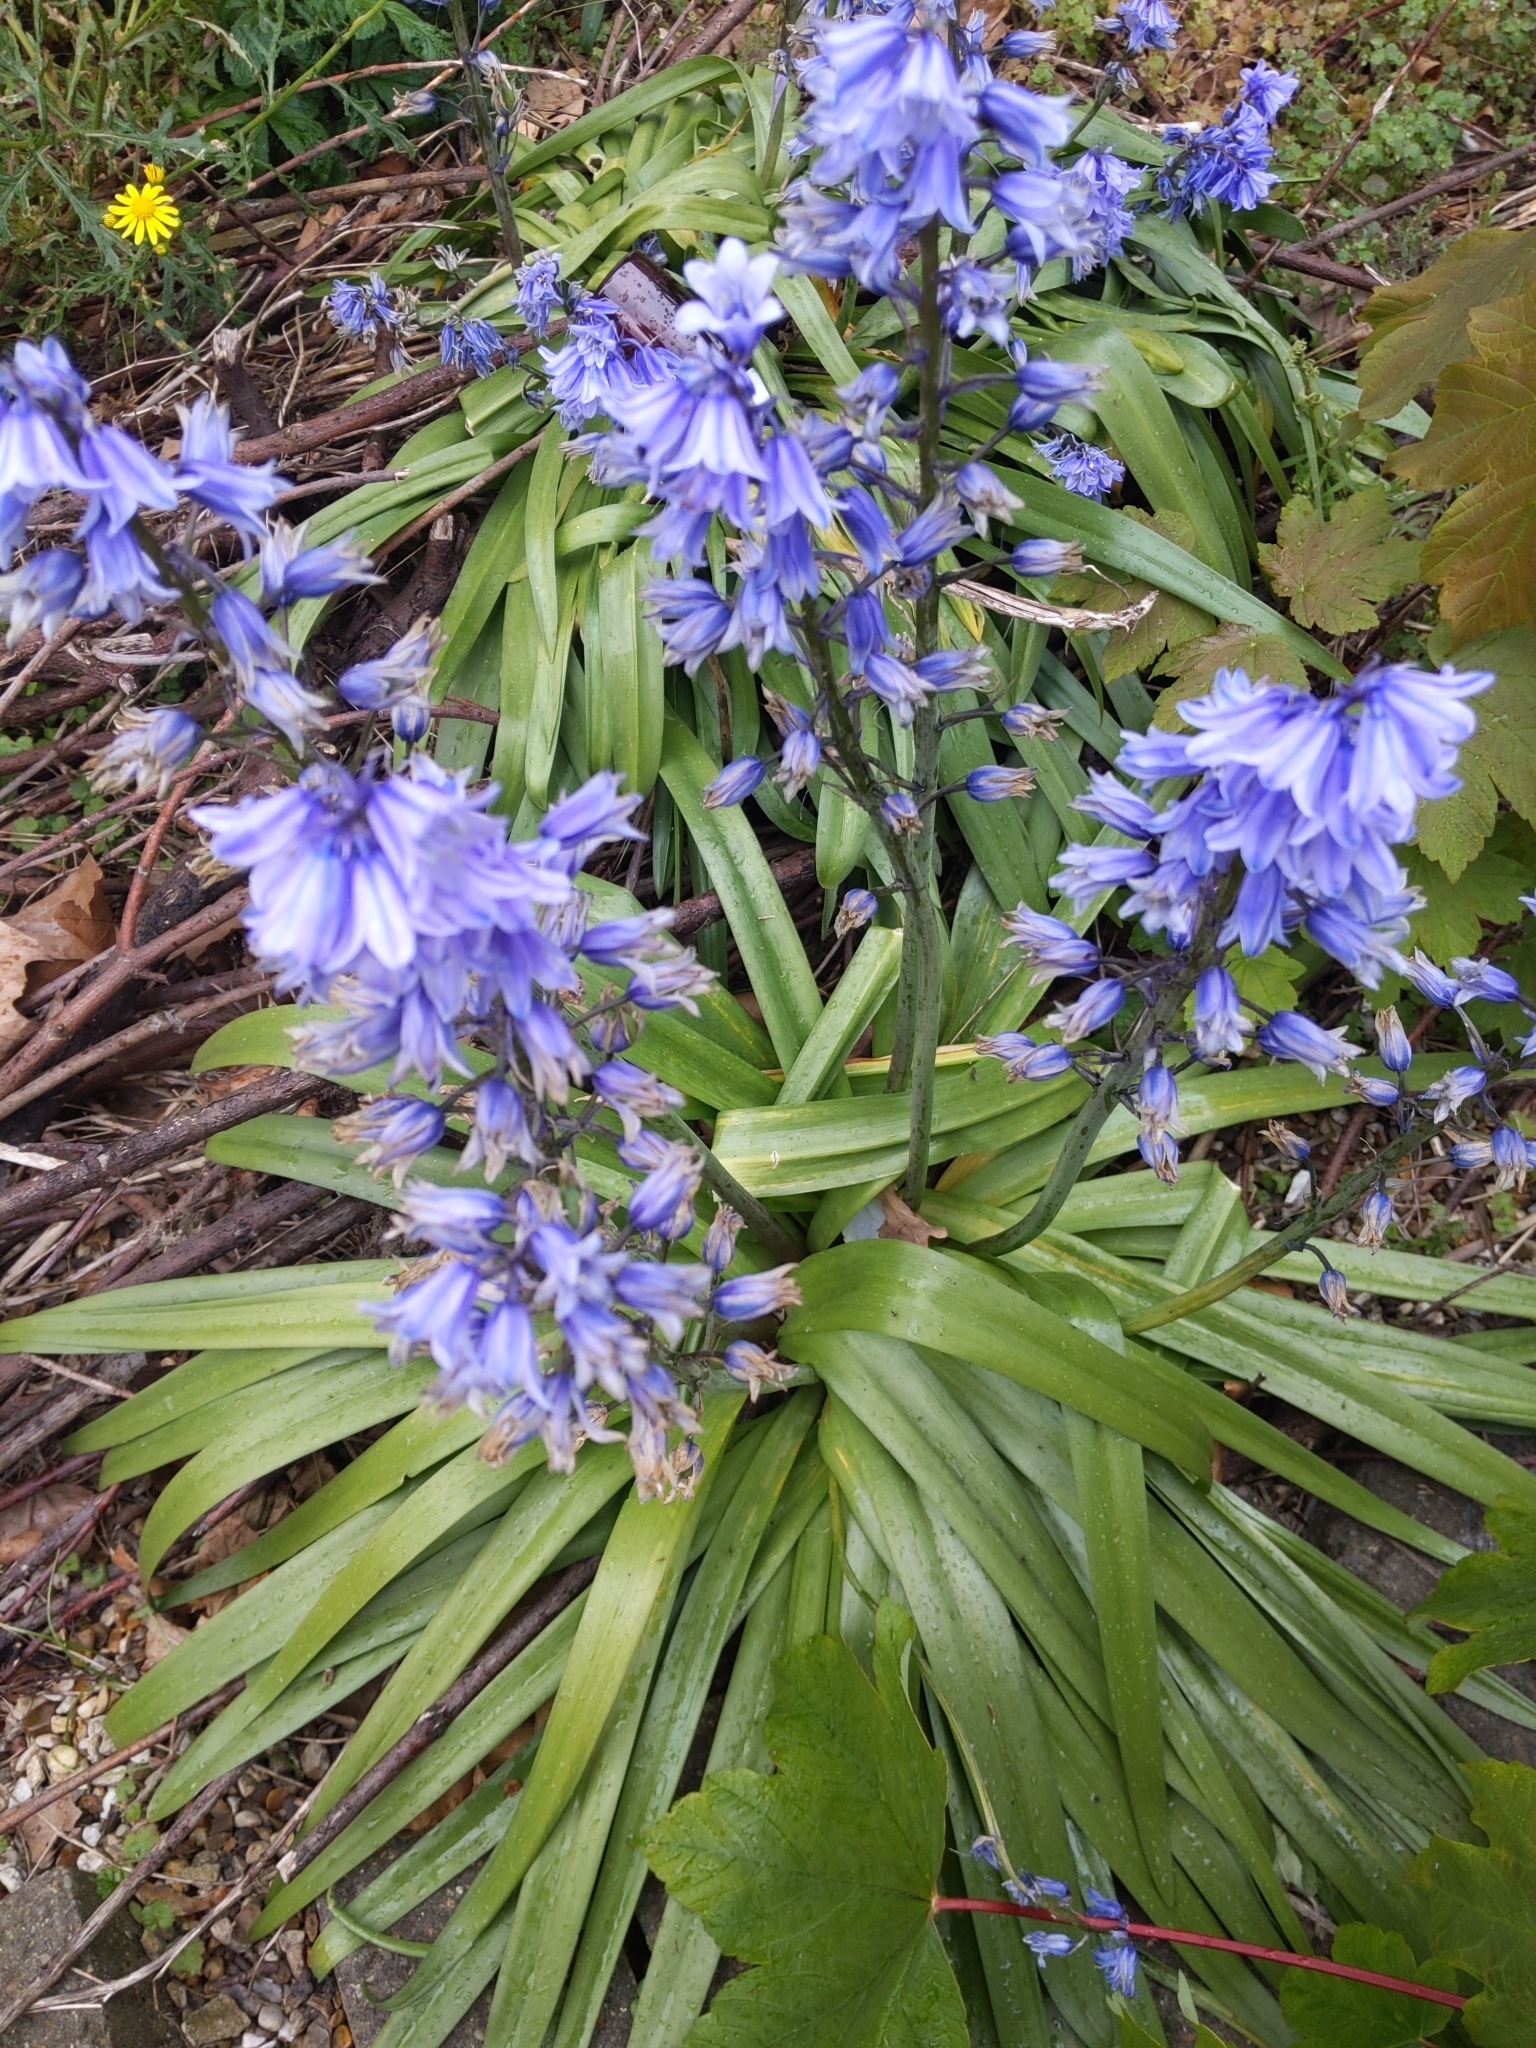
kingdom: Plantae
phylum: Tracheophyta
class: Liliopsida
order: Asparagales
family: Asparagaceae
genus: Hyacinthoides
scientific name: Hyacinthoides massartiana
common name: Hyacinthoides
